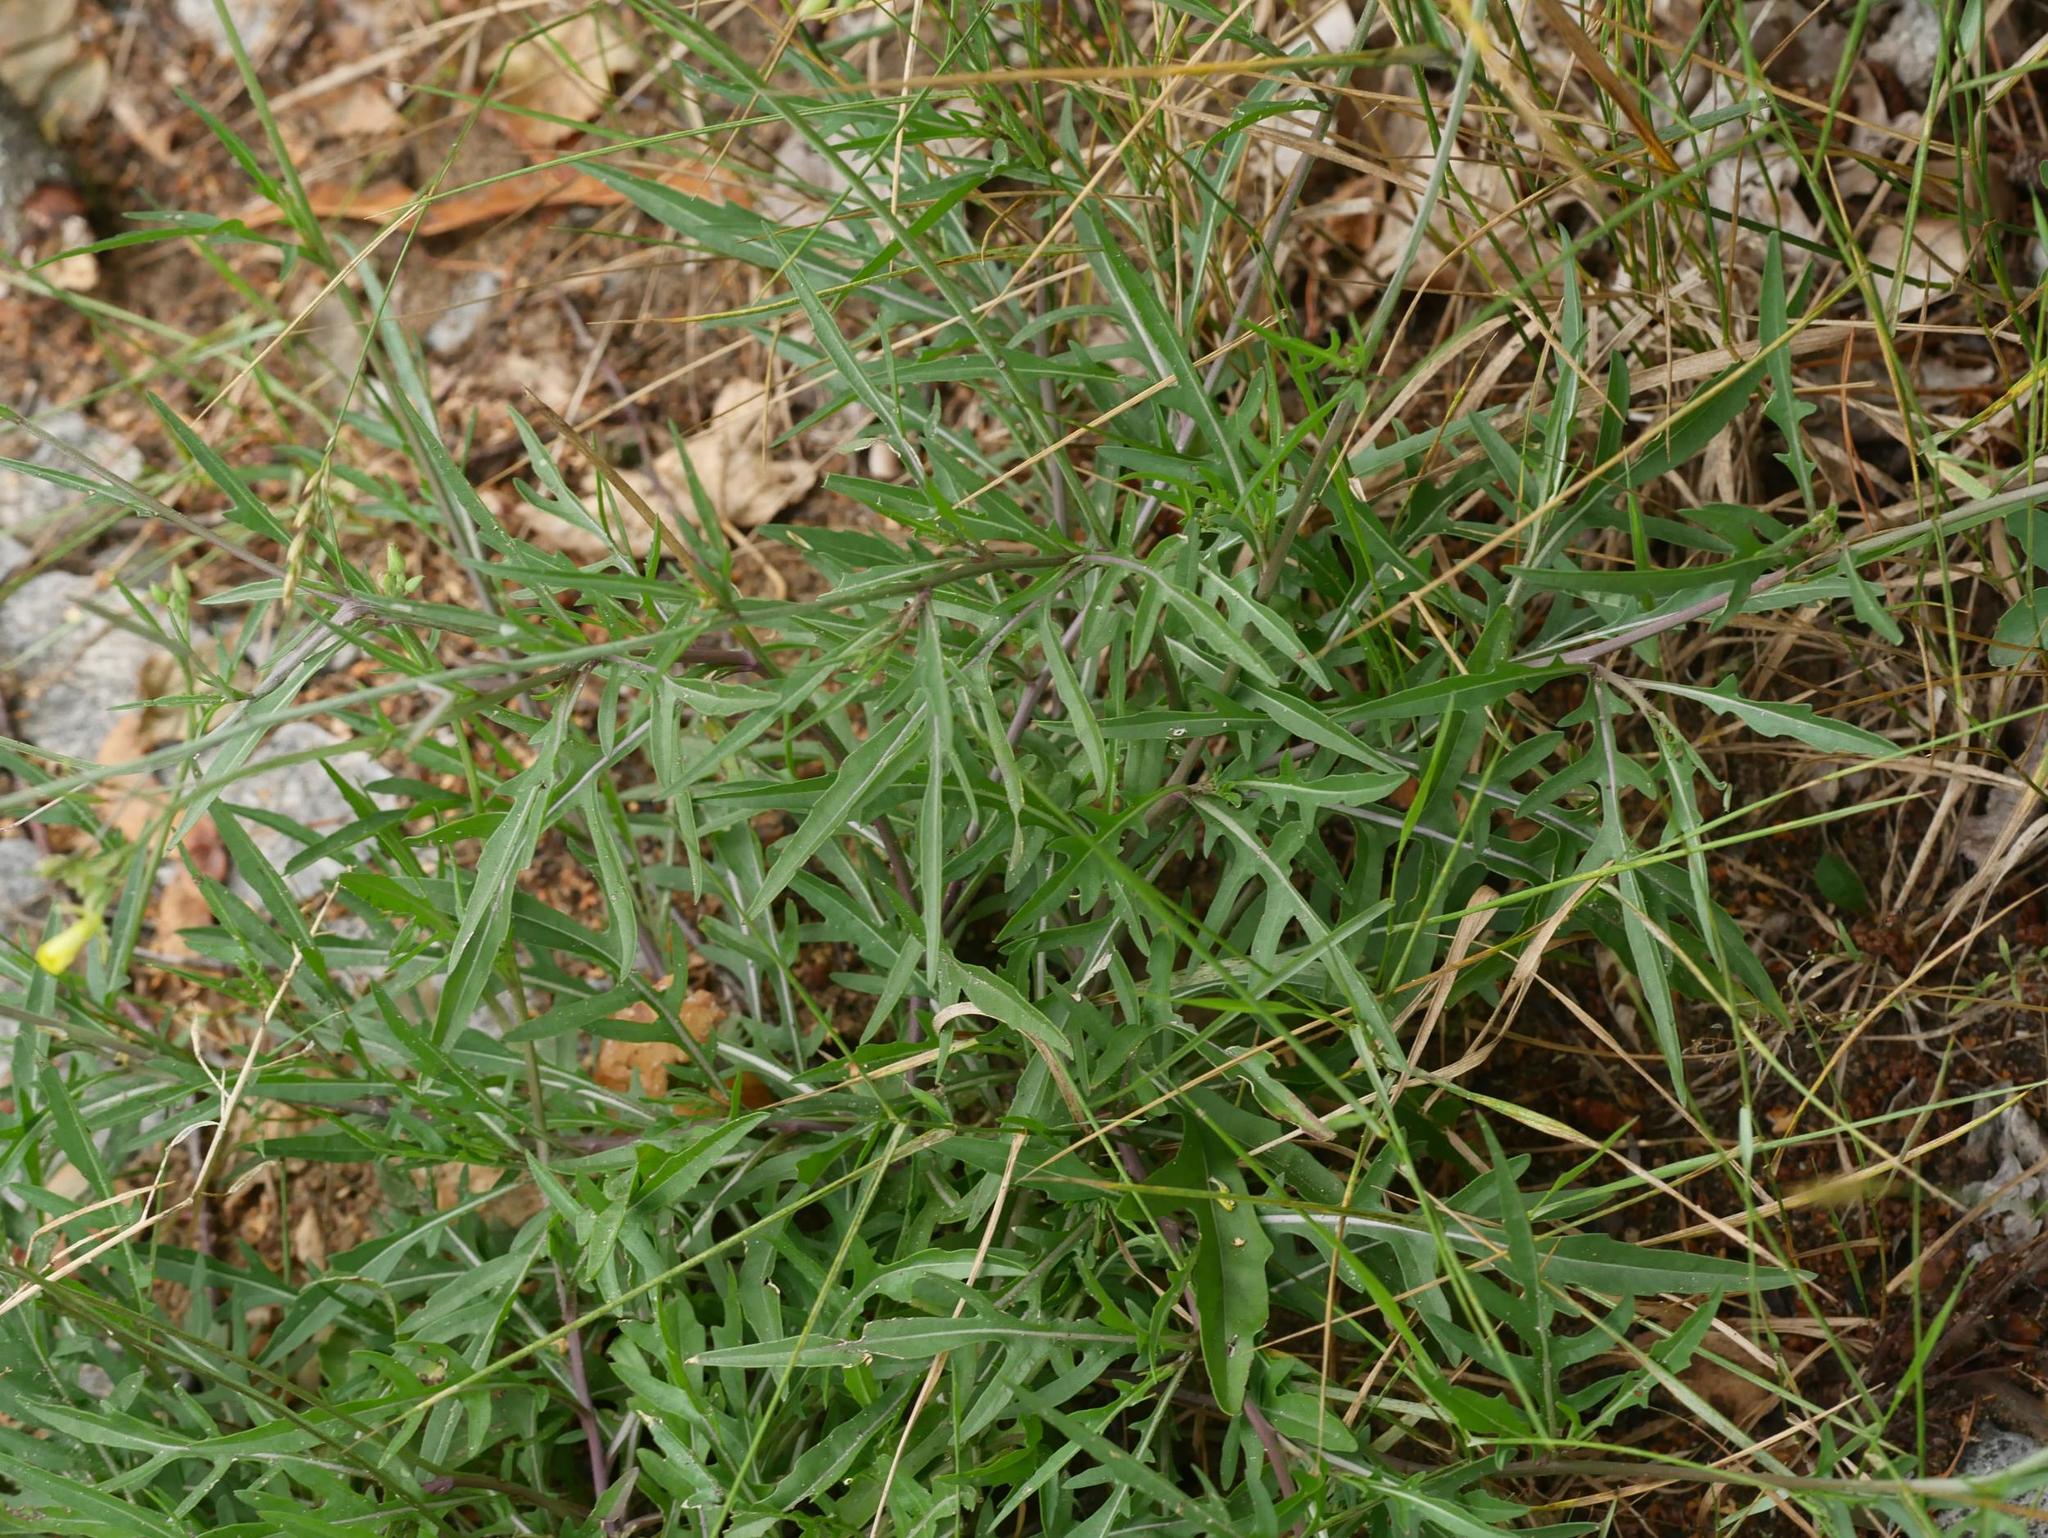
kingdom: Plantae
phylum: Tracheophyta
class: Magnoliopsida
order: Brassicales
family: Brassicaceae
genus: Diplotaxis
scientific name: Diplotaxis tenuifolia
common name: Perennial wall-rocket
